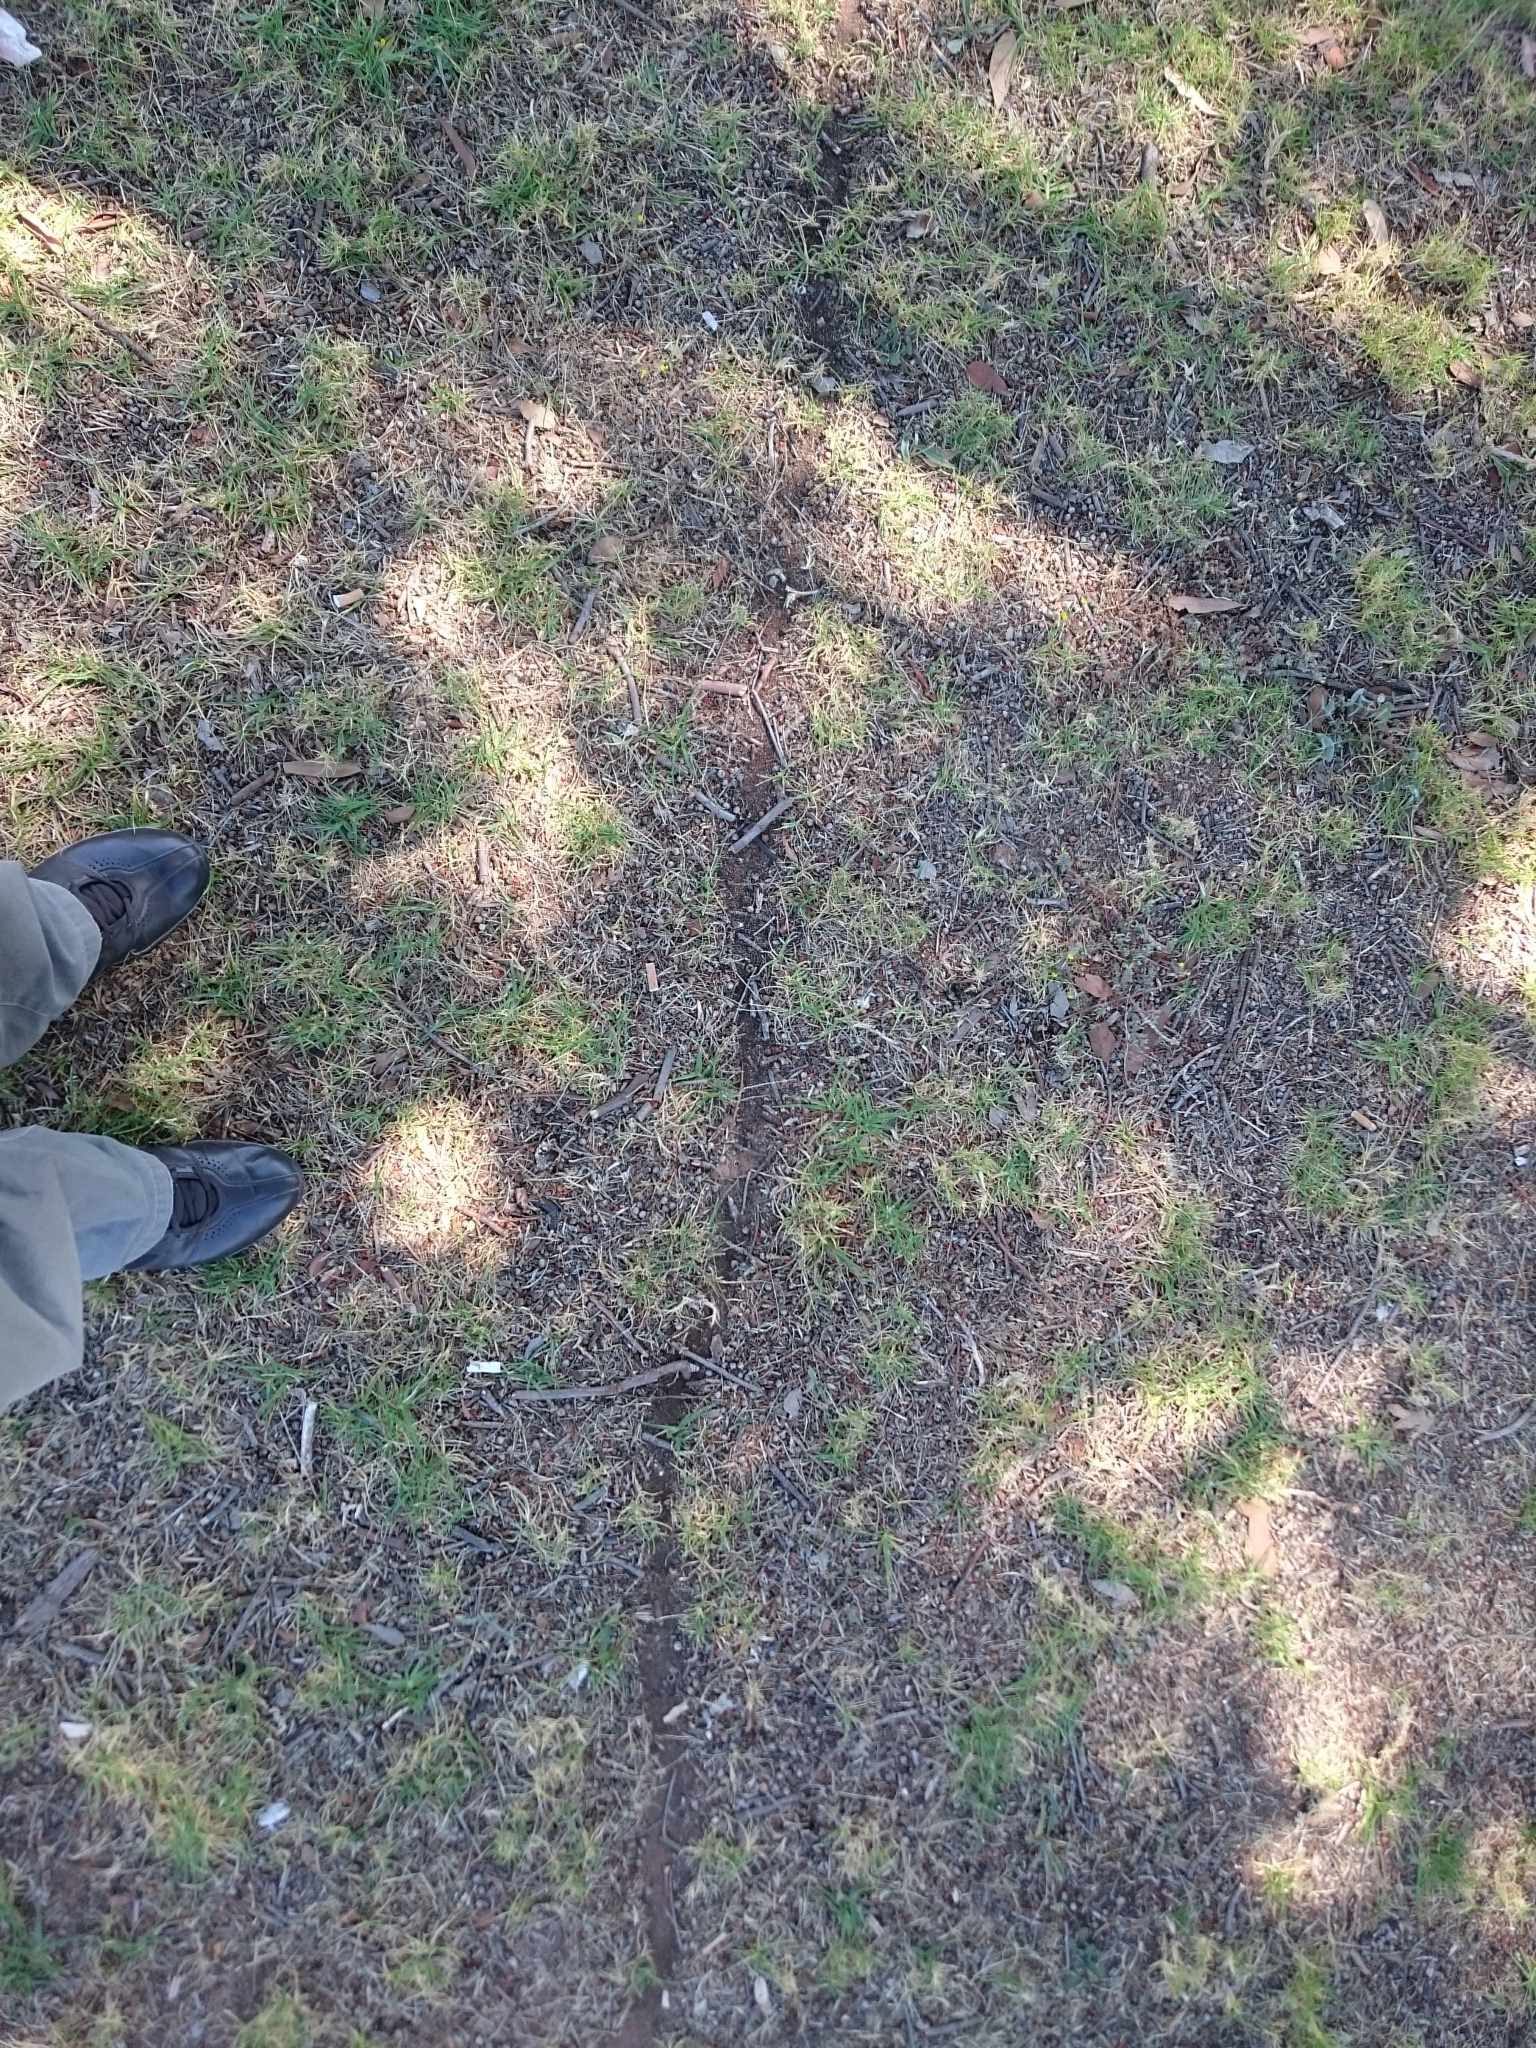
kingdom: Animalia
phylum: Arthropoda
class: Insecta
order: Hymenoptera
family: Formicidae
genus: Messor
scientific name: Messor capensis
